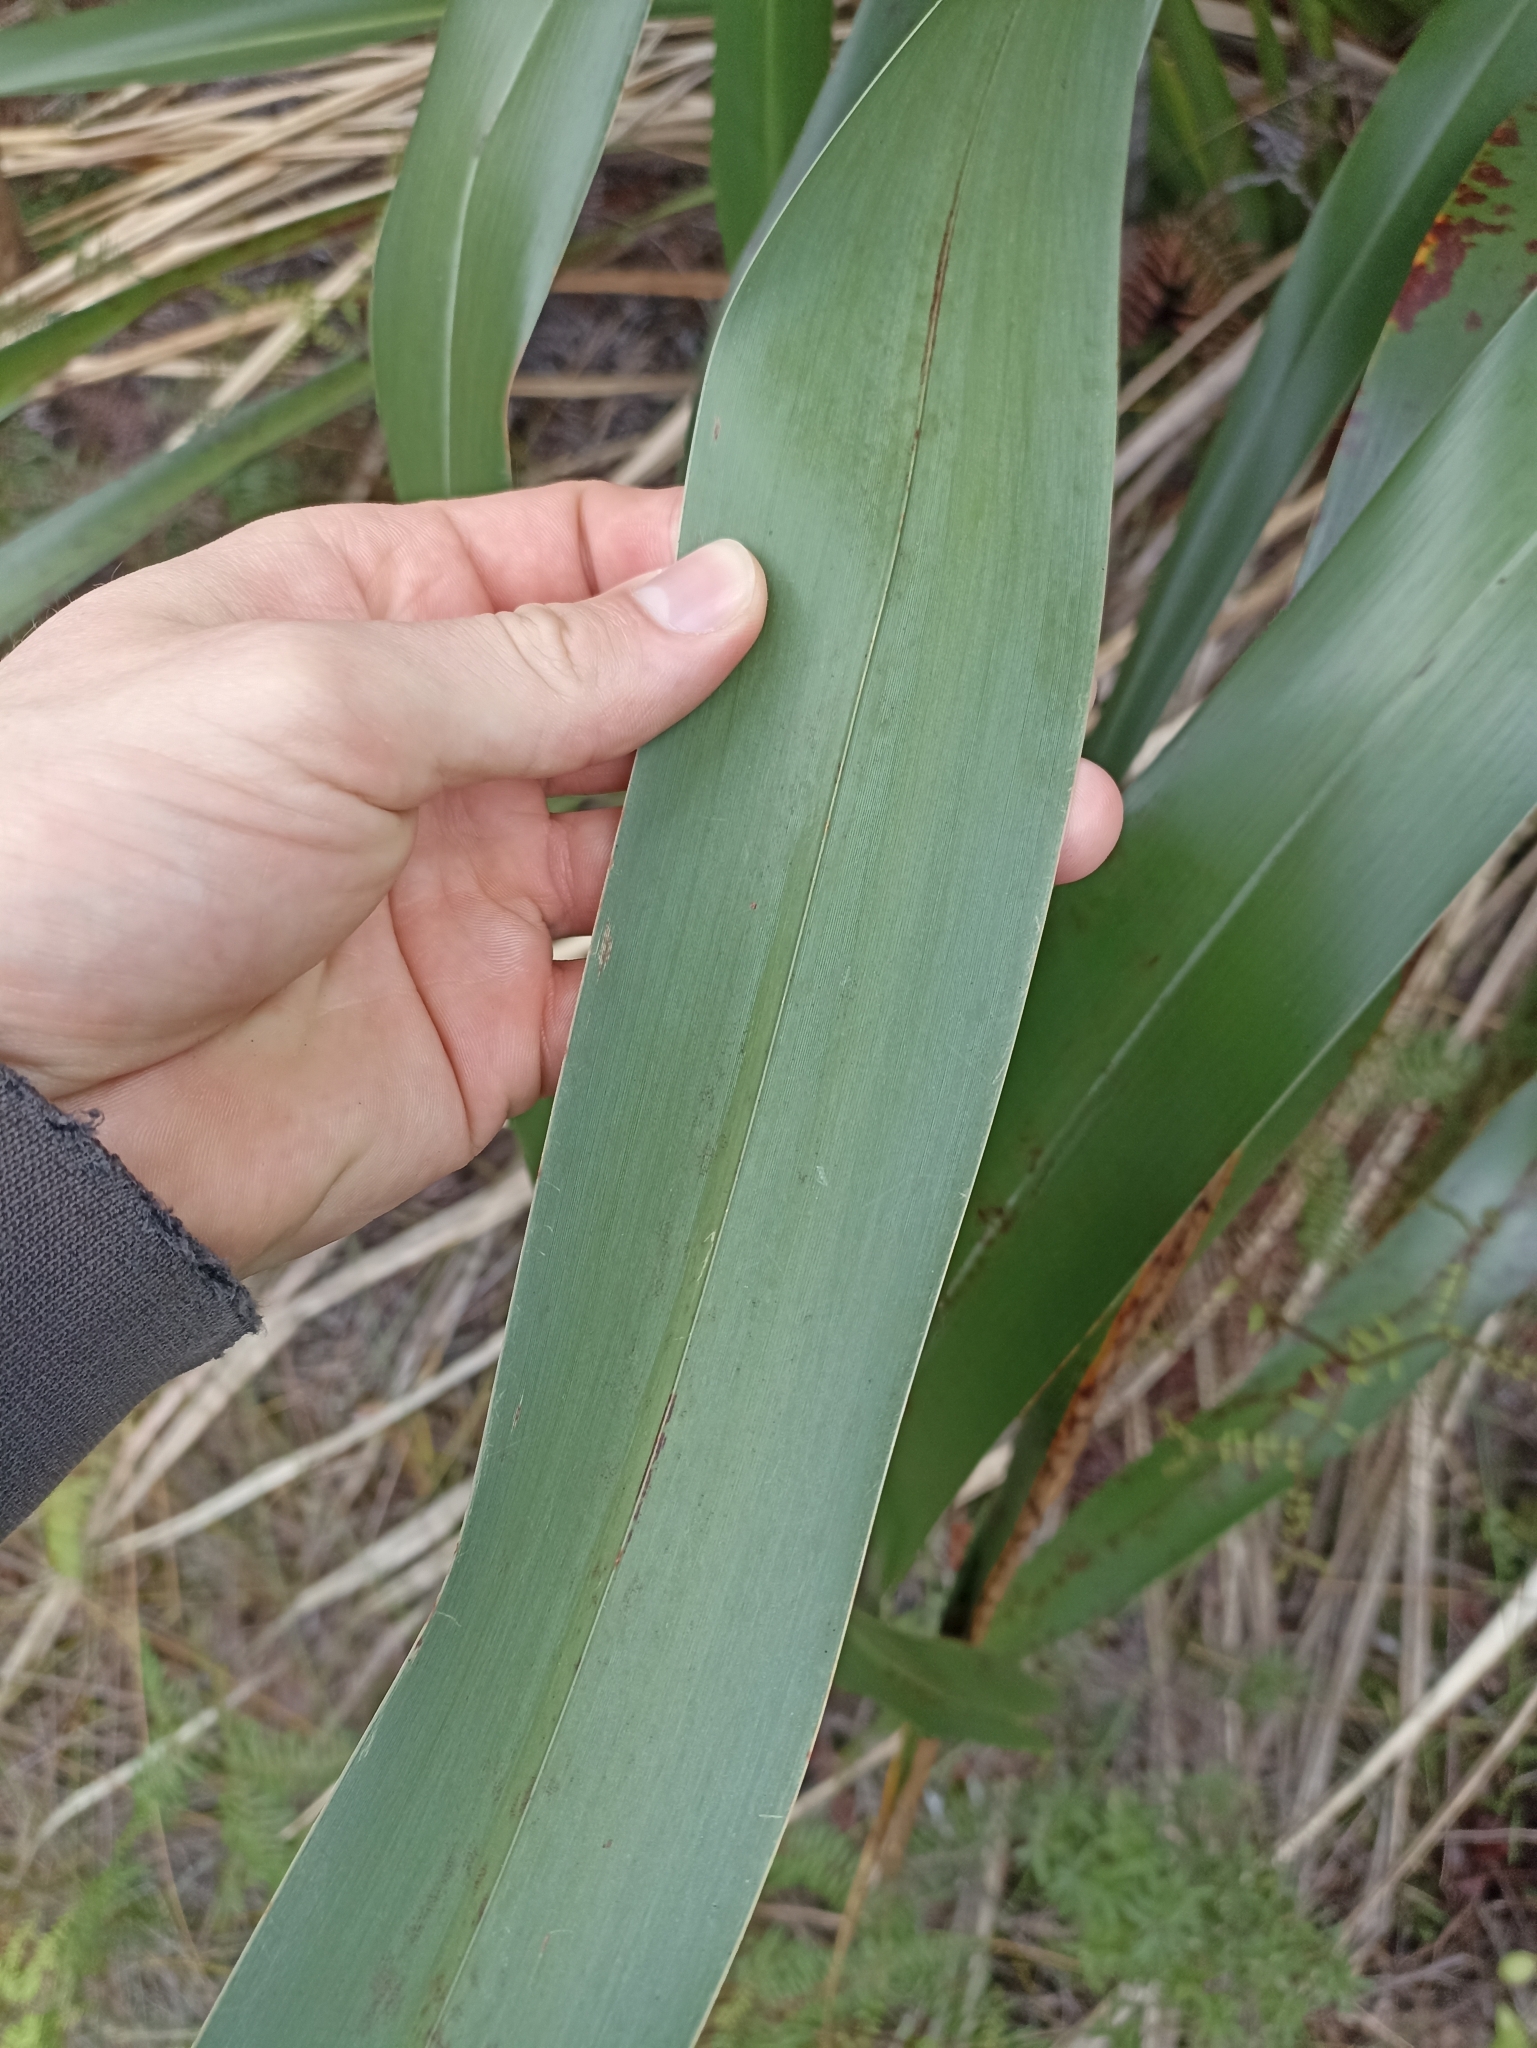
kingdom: Plantae
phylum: Tracheophyta
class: Liliopsida
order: Asparagales
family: Asphodelaceae
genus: Phormium
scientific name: Phormium colensoi
